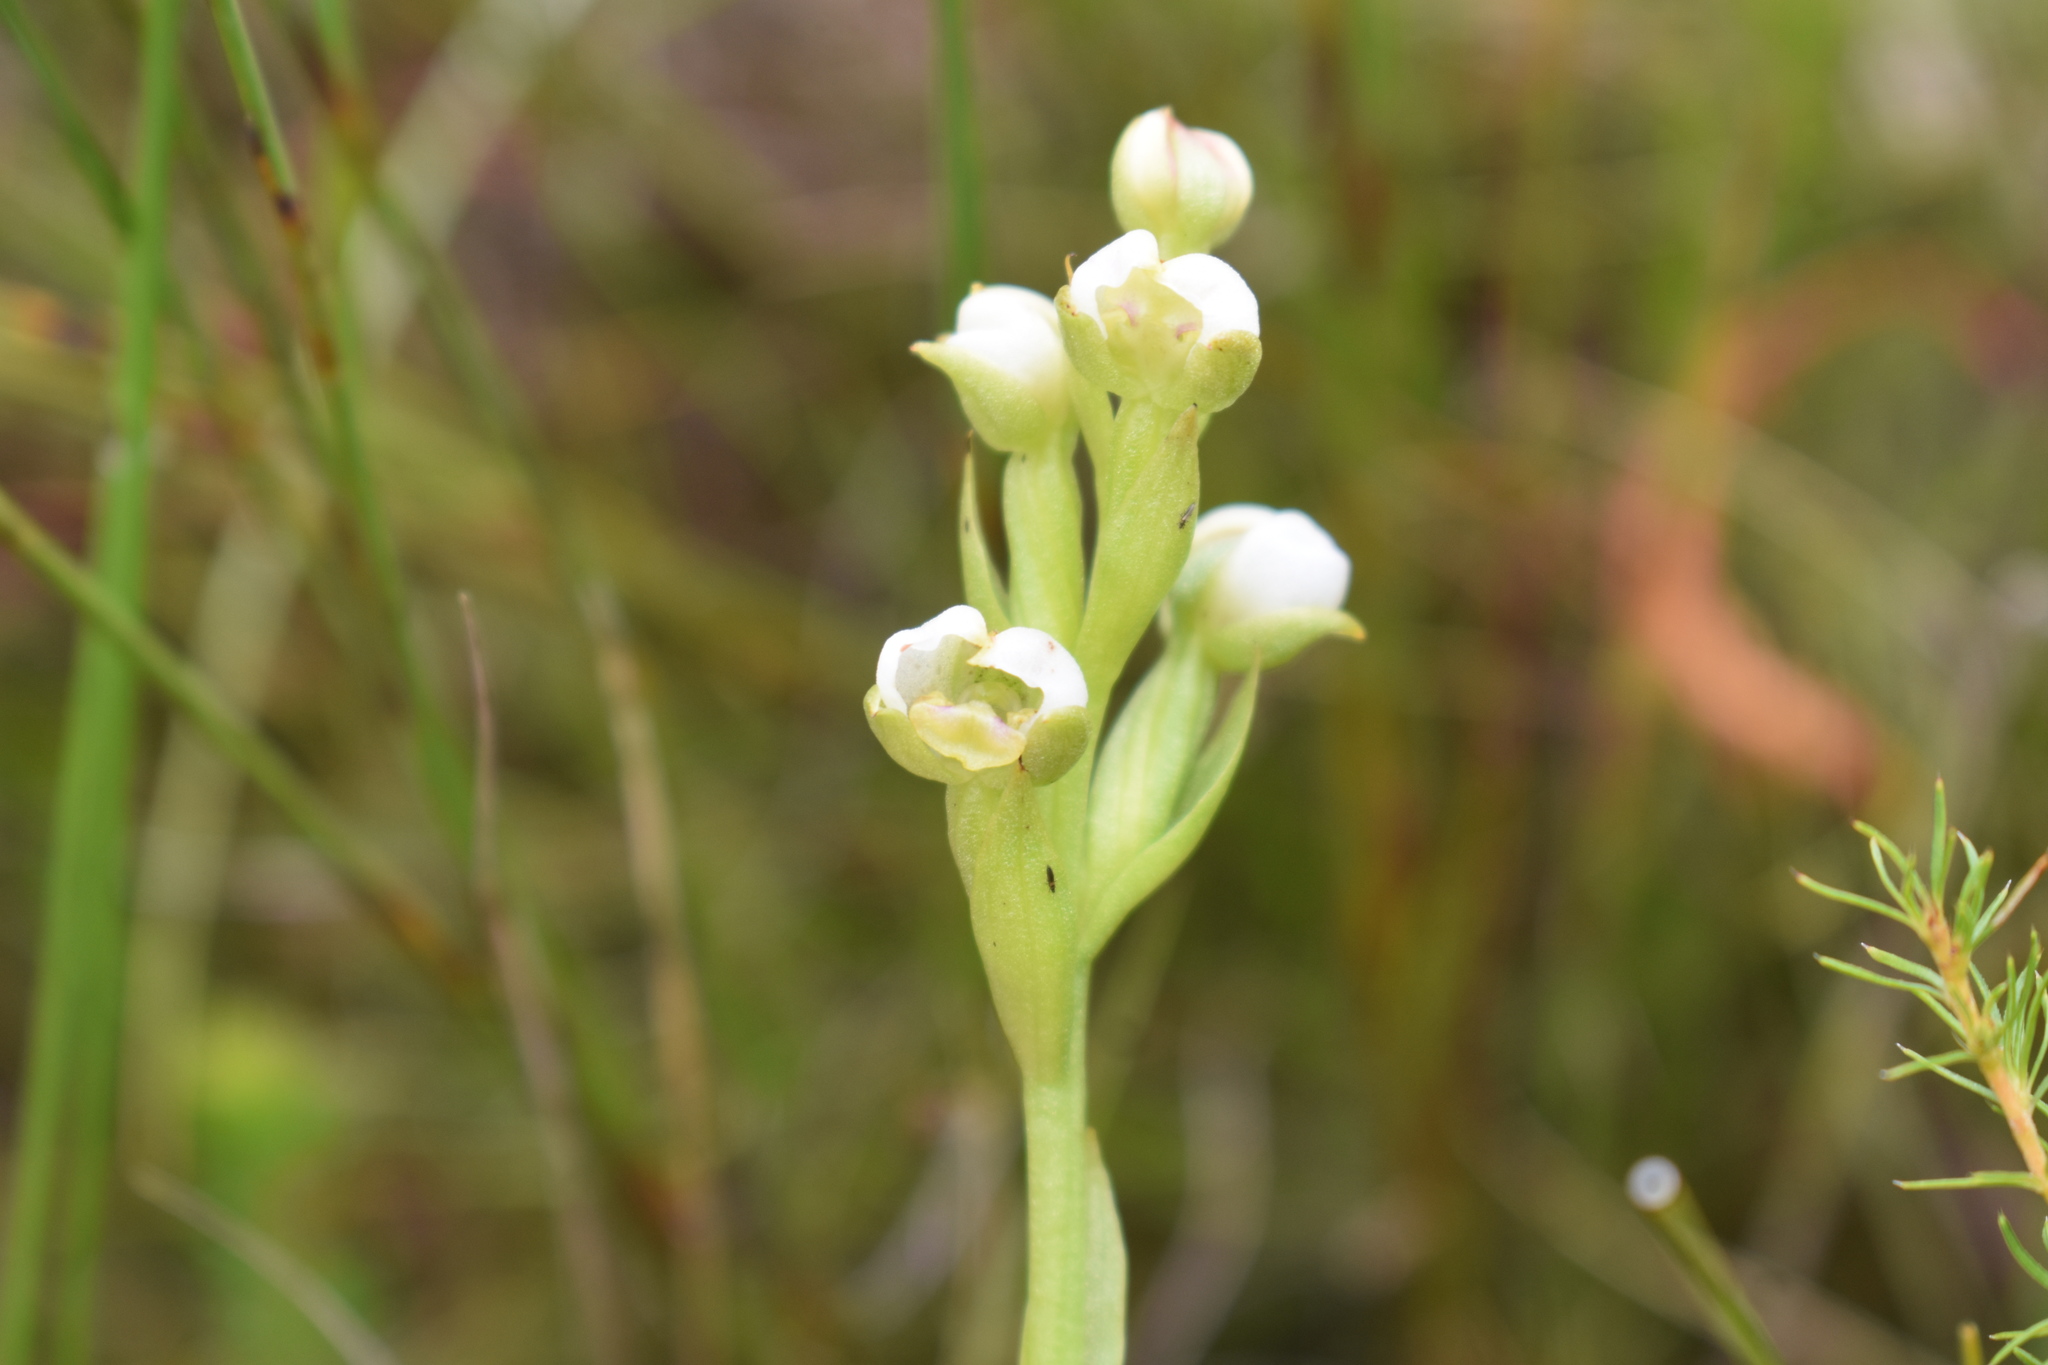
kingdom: Plantae
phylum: Tracheophyta
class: Liliopsida
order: Asparagales
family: Orchidaceae
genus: Evotella
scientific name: Evotella carnosa
